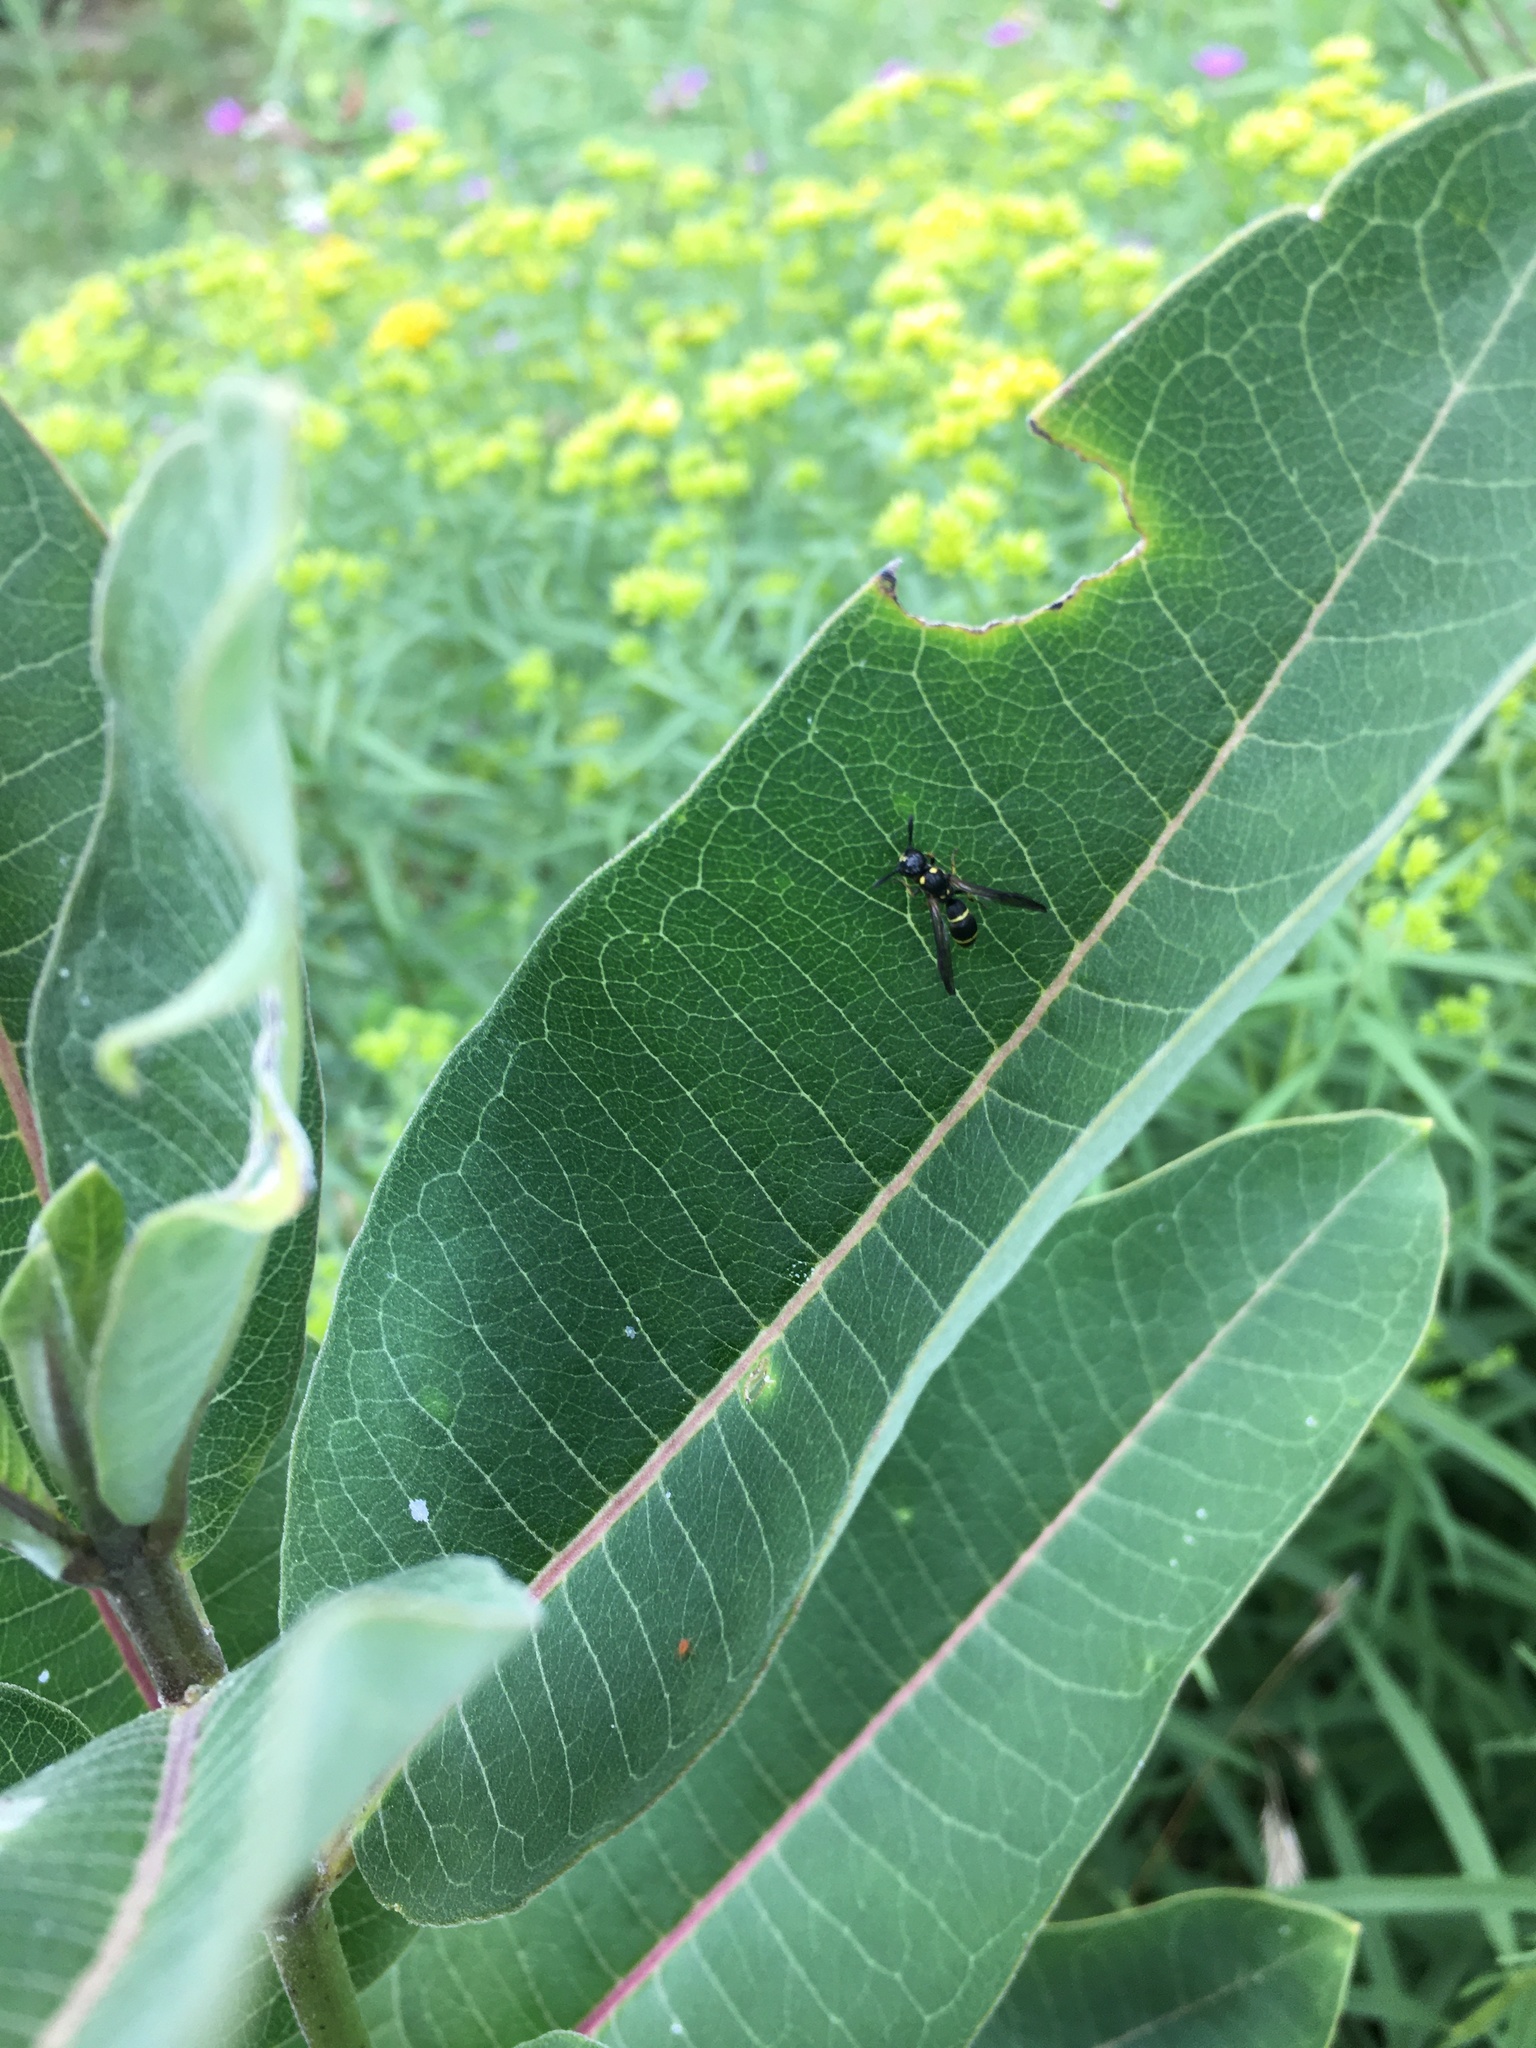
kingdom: Animalia
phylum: Arthropoda
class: Insecta
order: Hymenoptera
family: Eumenidae
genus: Symmorphus
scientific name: Symmorphus
